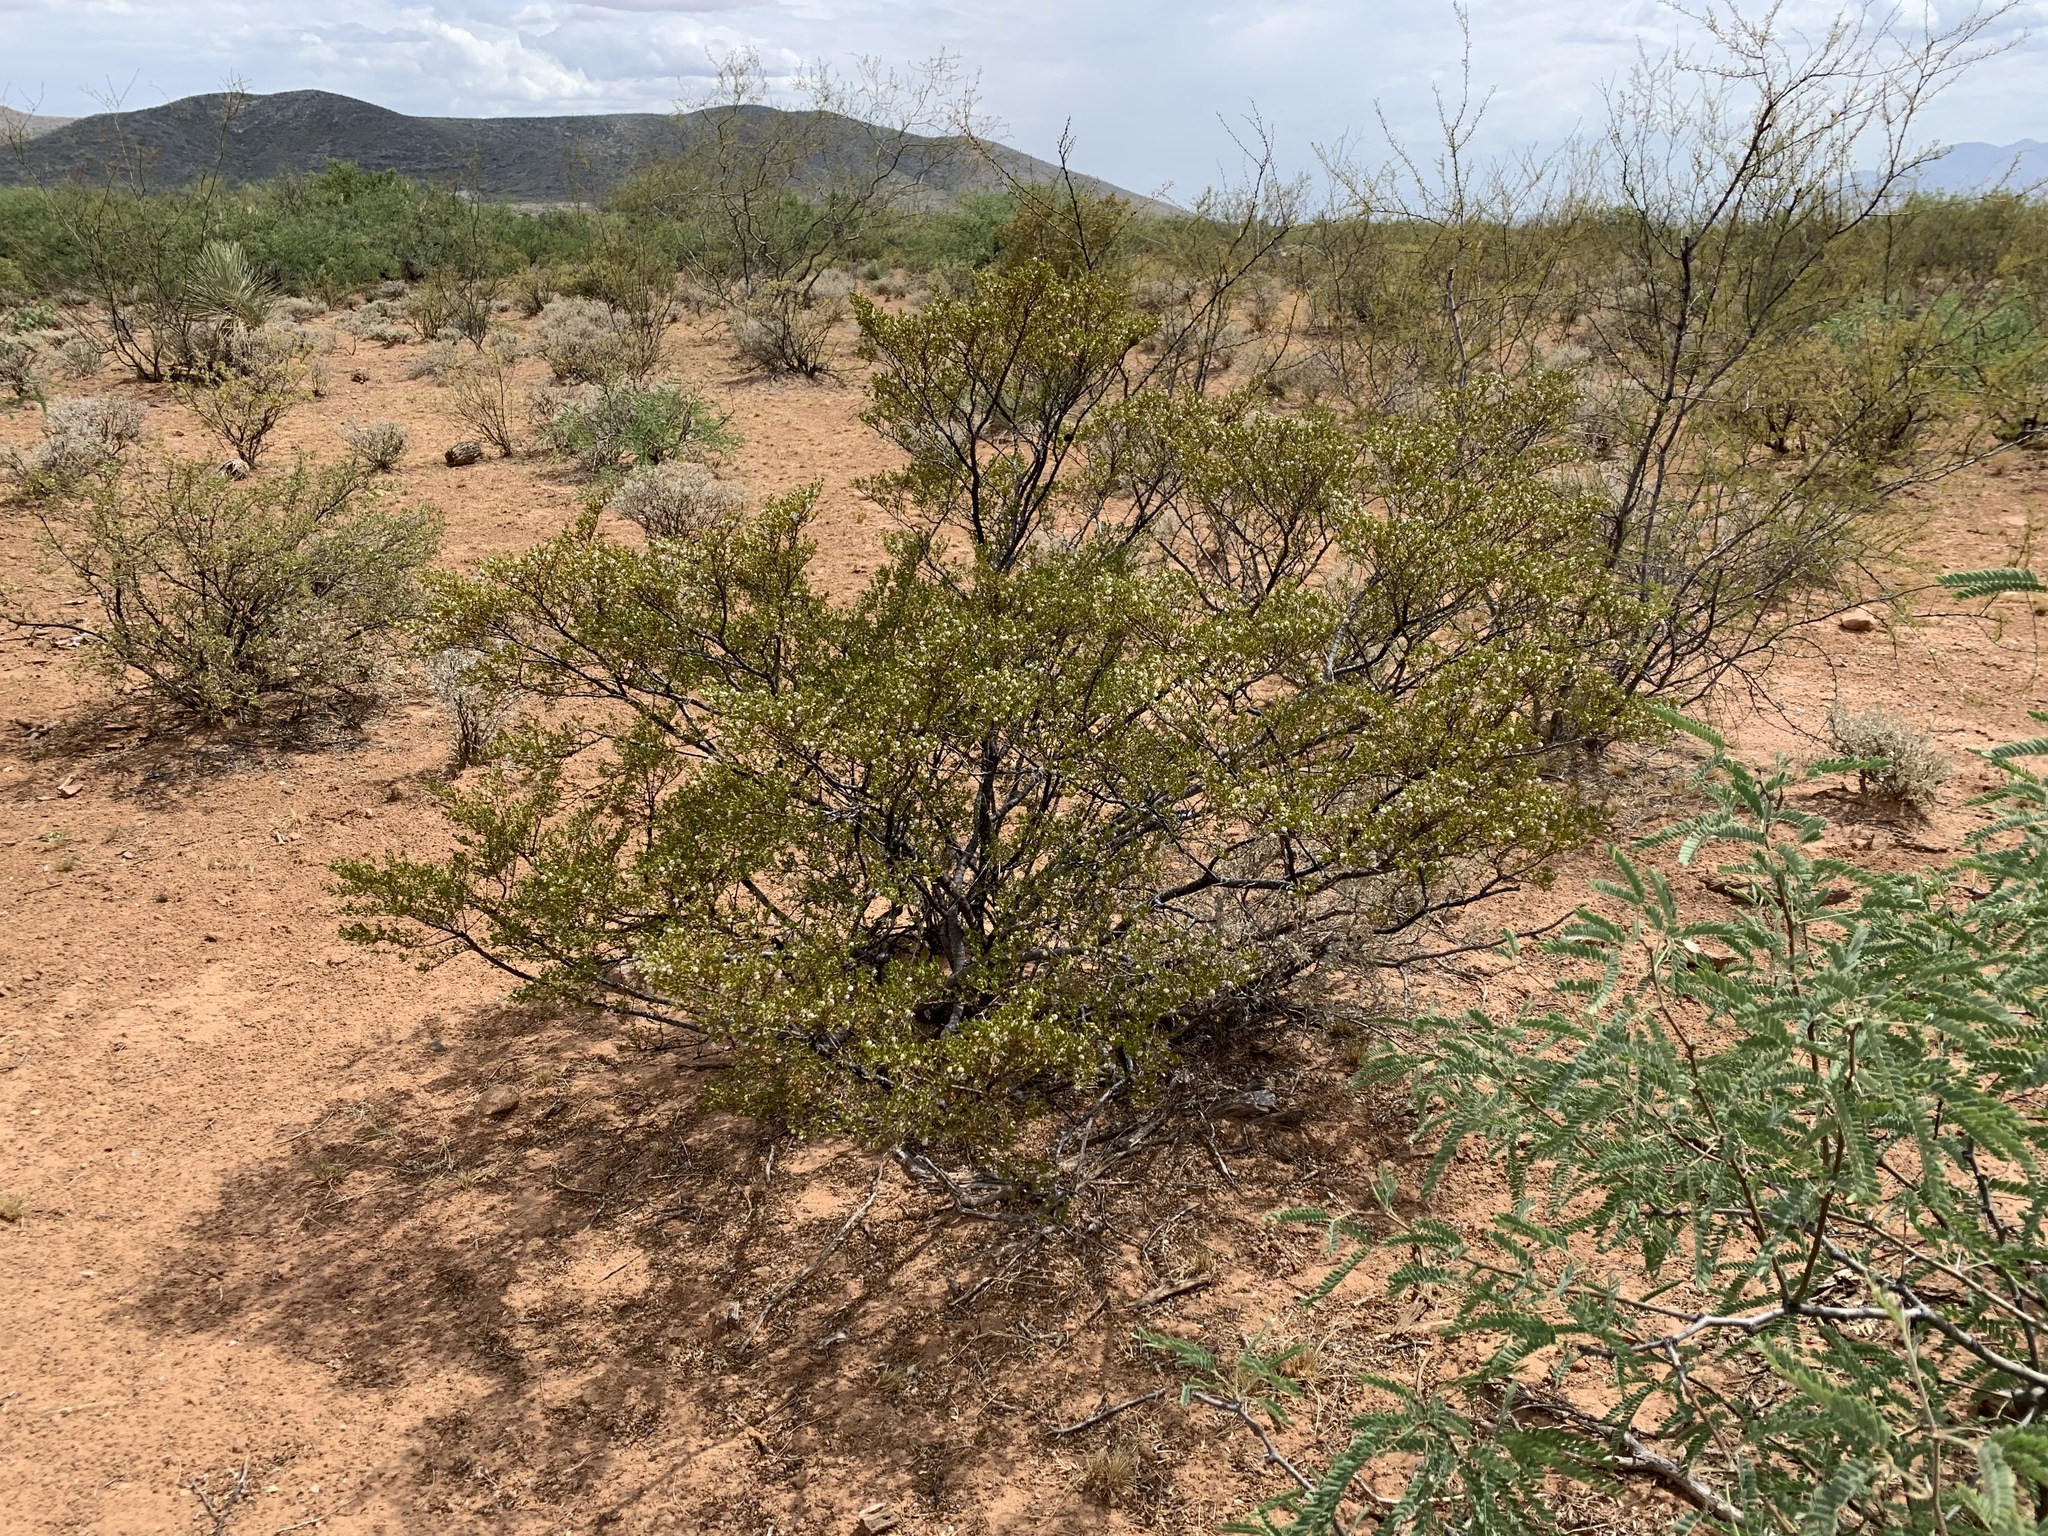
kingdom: Plantae
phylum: Tracheophyta
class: Magnoliopsida
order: Zygophyllales
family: Zygophyllaceae
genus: Larrea
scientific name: Larrea tridentata
